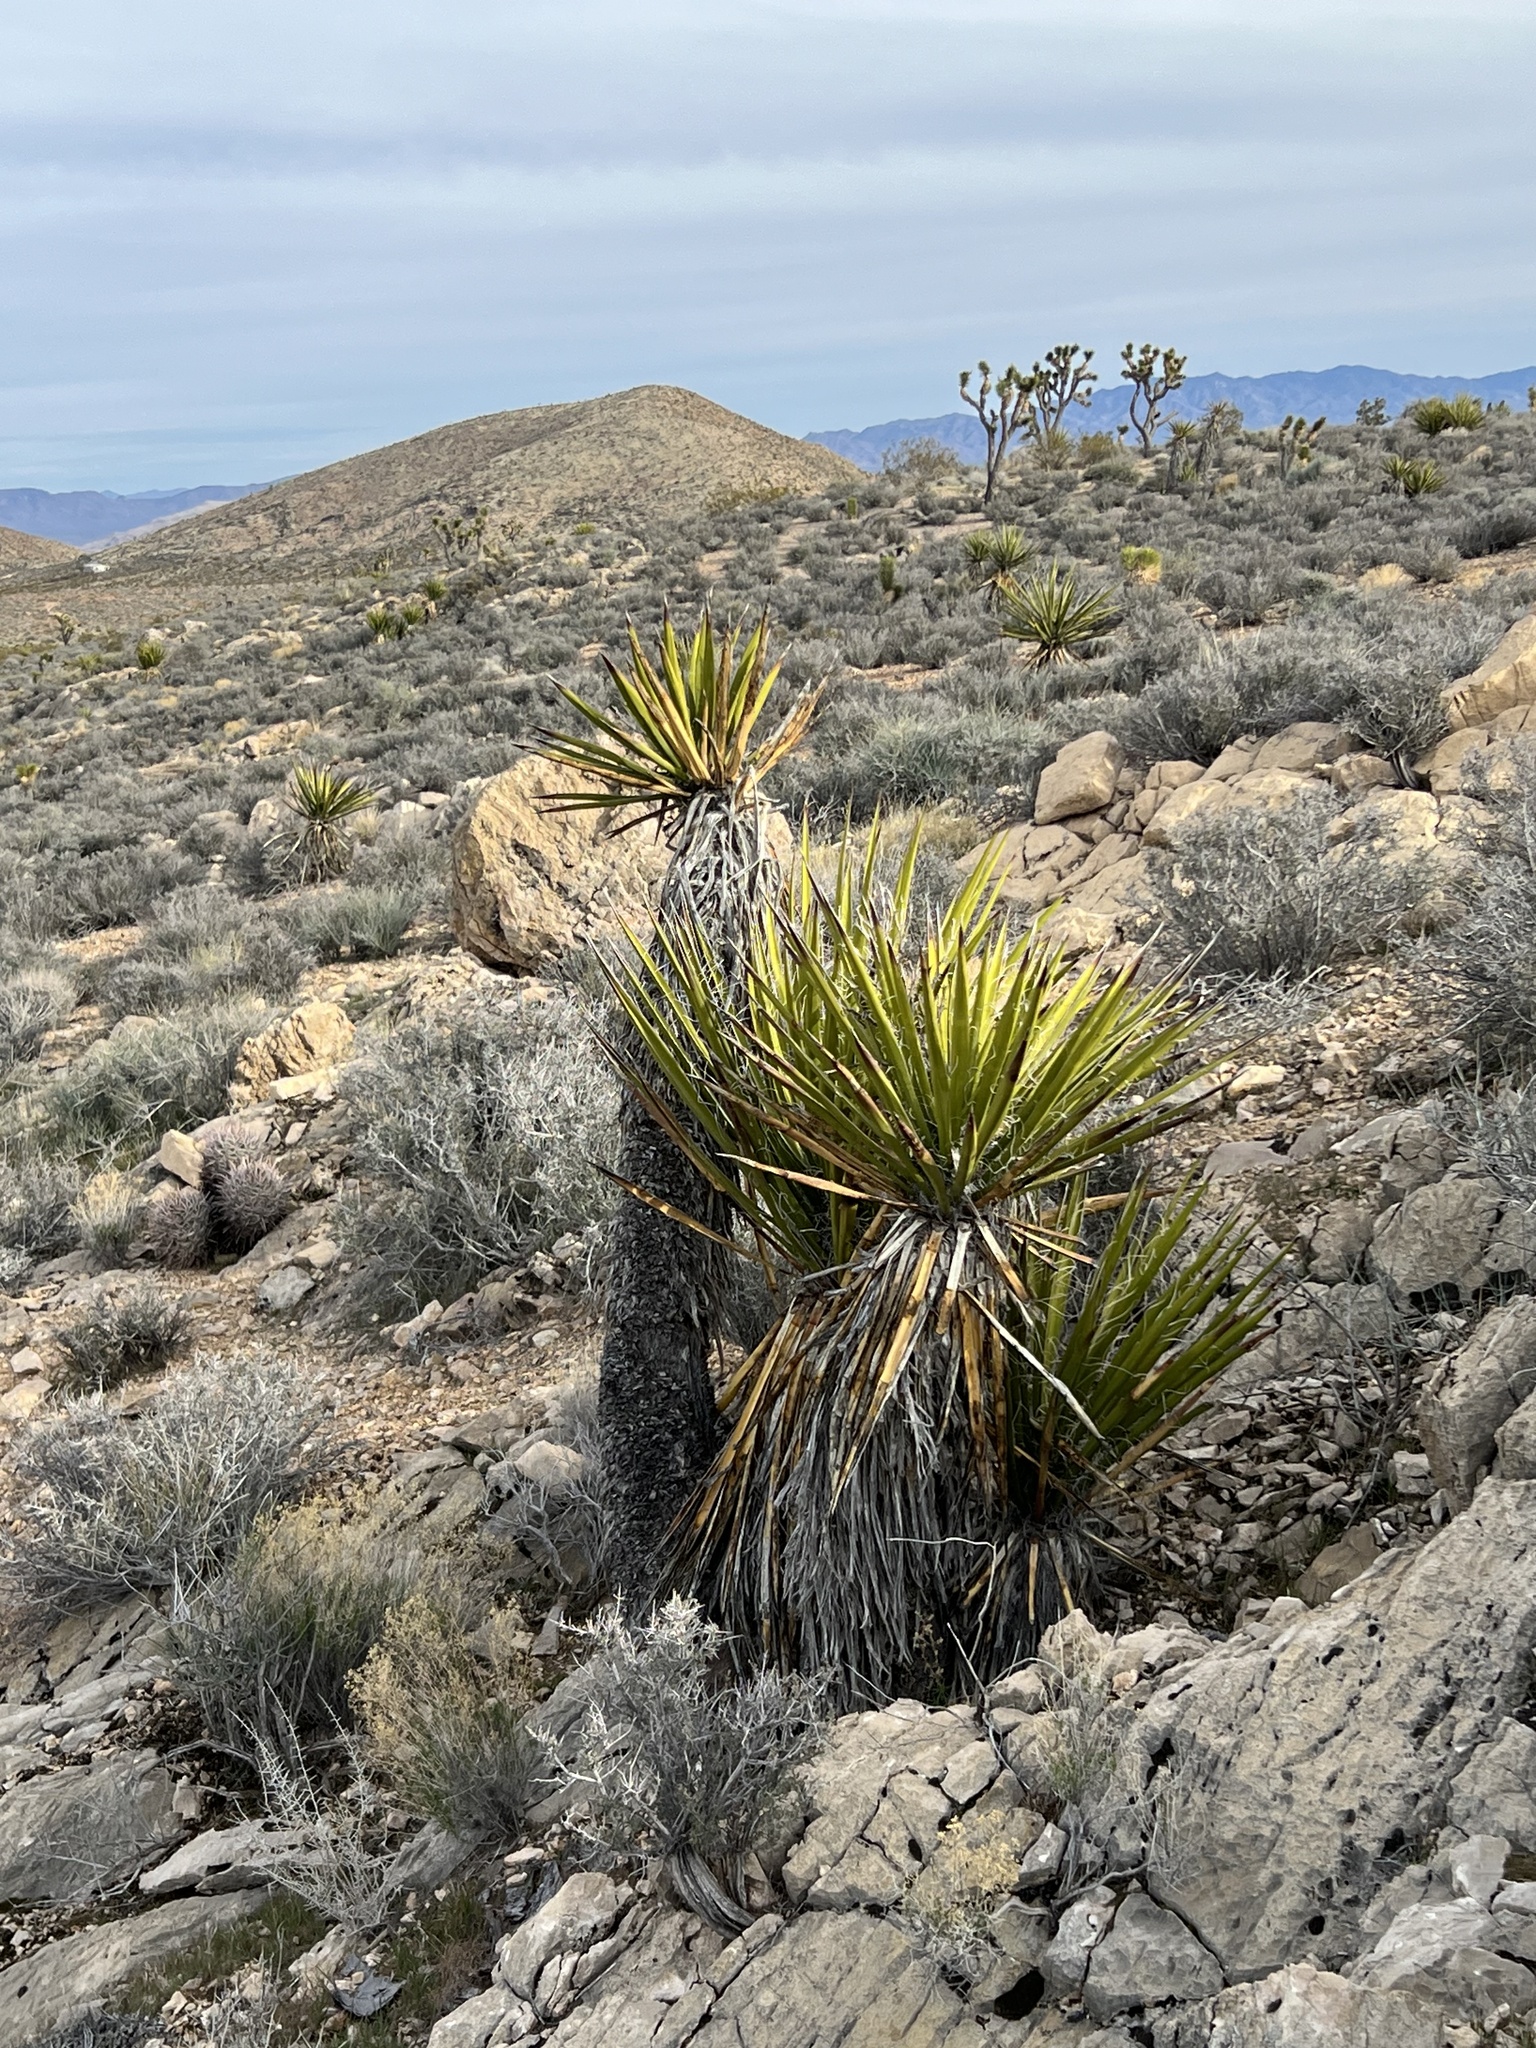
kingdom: Plantae
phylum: Tracheophyta
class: Liliopsida
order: Asparagales
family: Asparagaceae
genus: Yucca
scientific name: Yucca schidigera
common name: Mojave yucca
